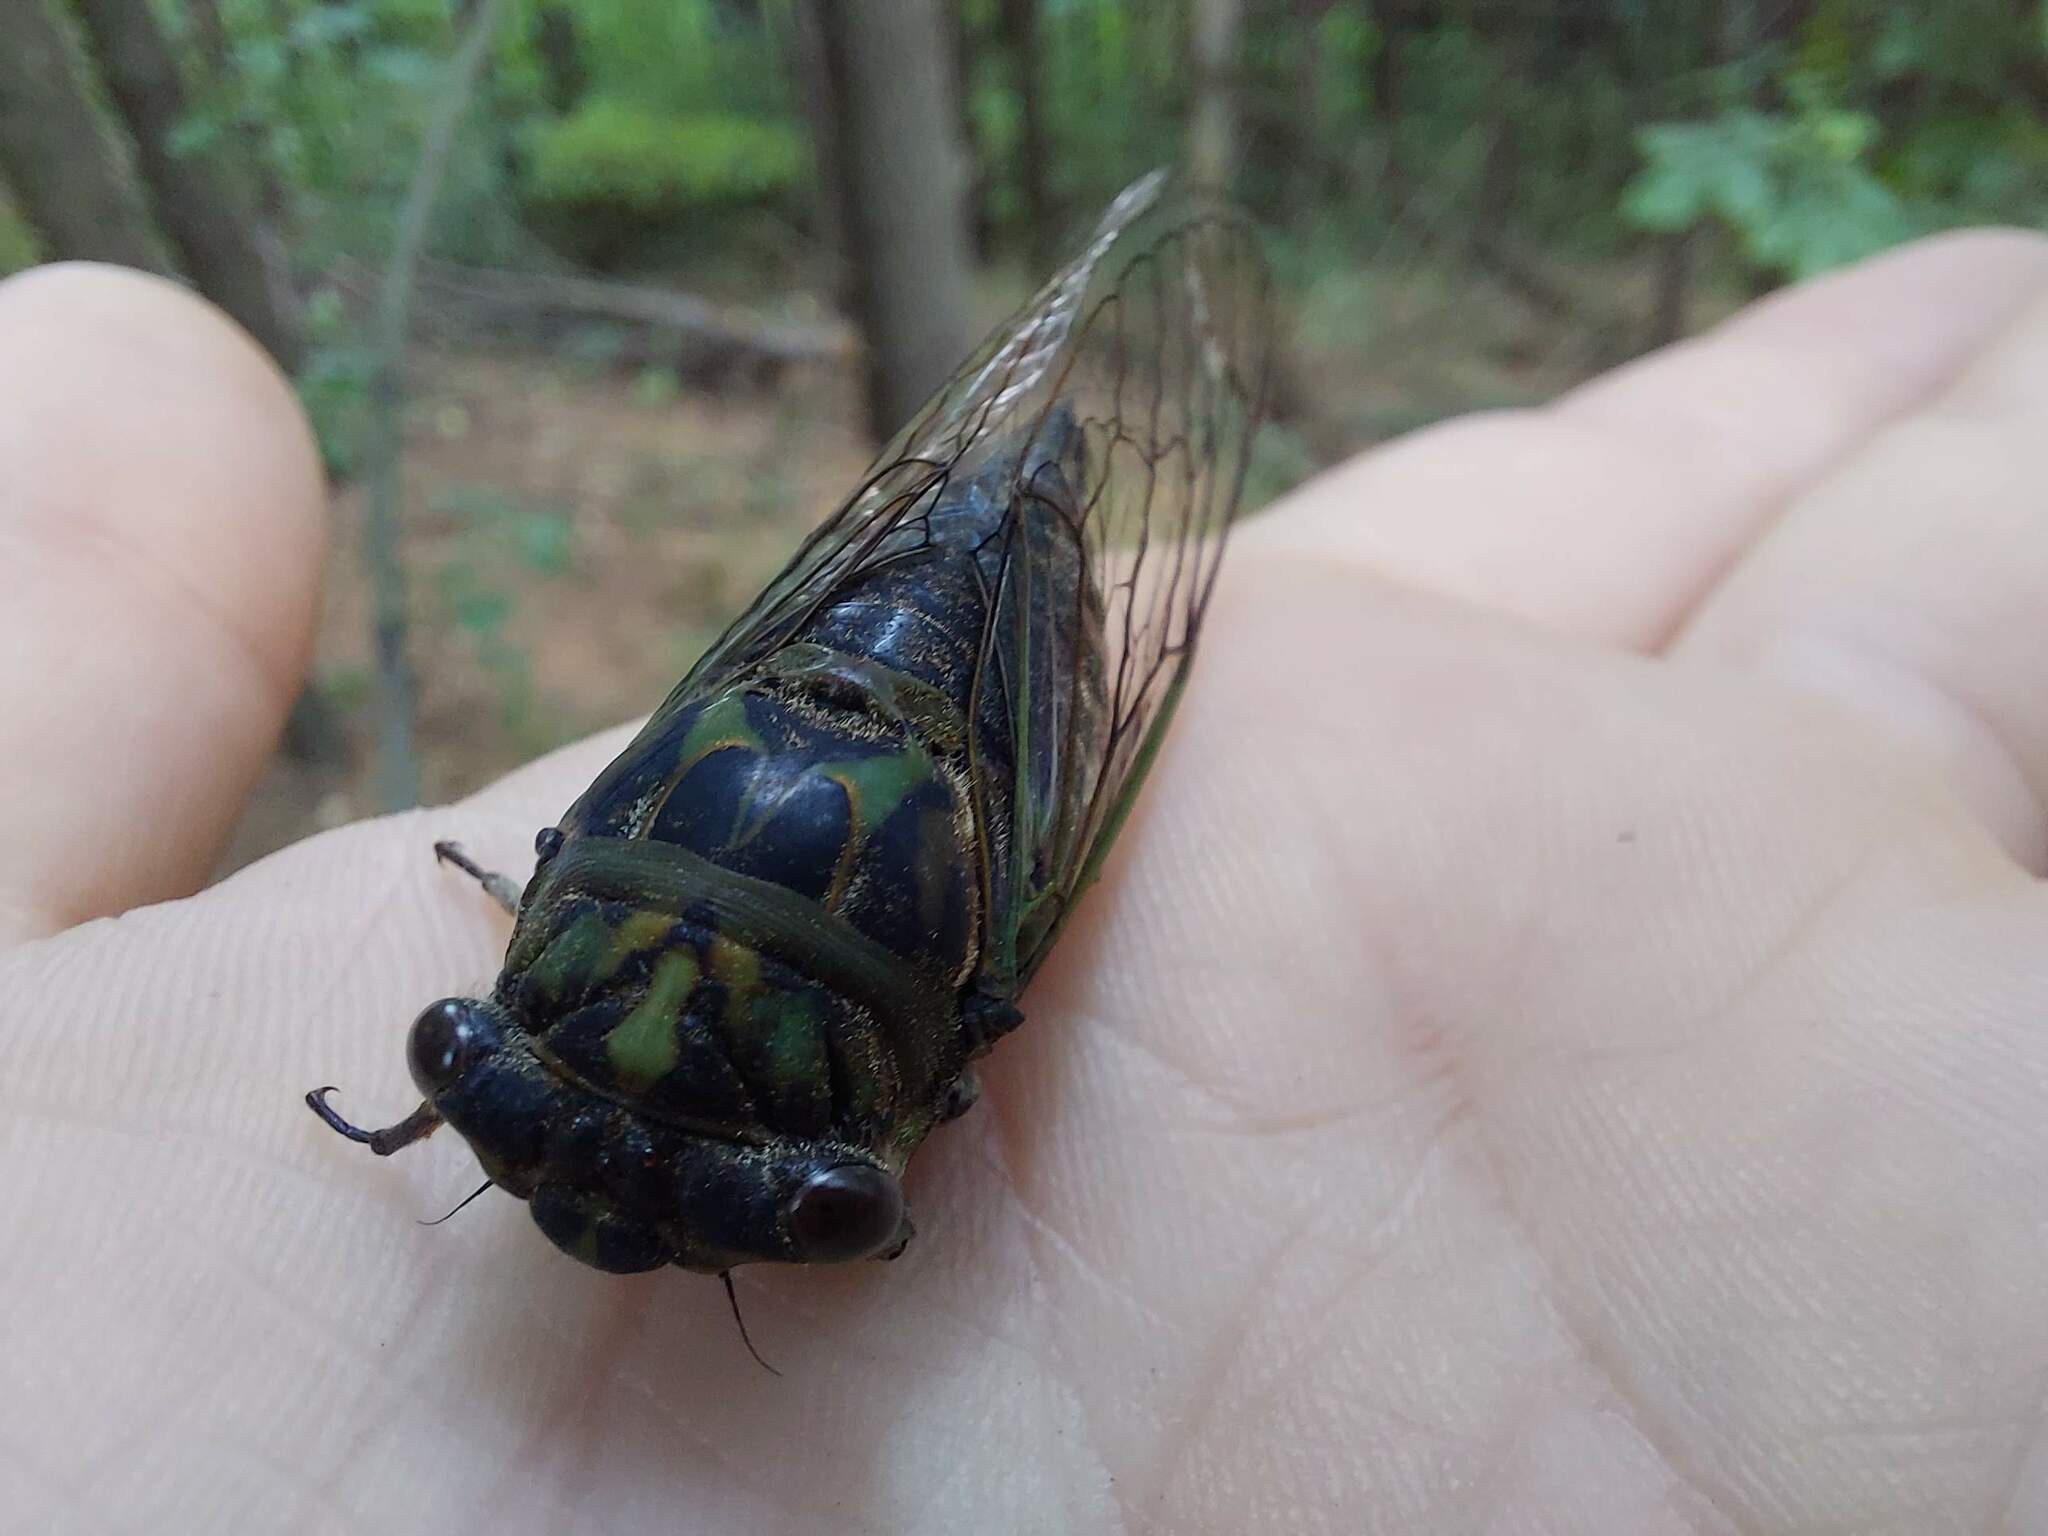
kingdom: Animalia
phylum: Arthropoda
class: Insecta
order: Hemiptera
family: Cicadidae
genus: Neotibicen
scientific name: Neotibicen canicularis
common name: God-day cicada
